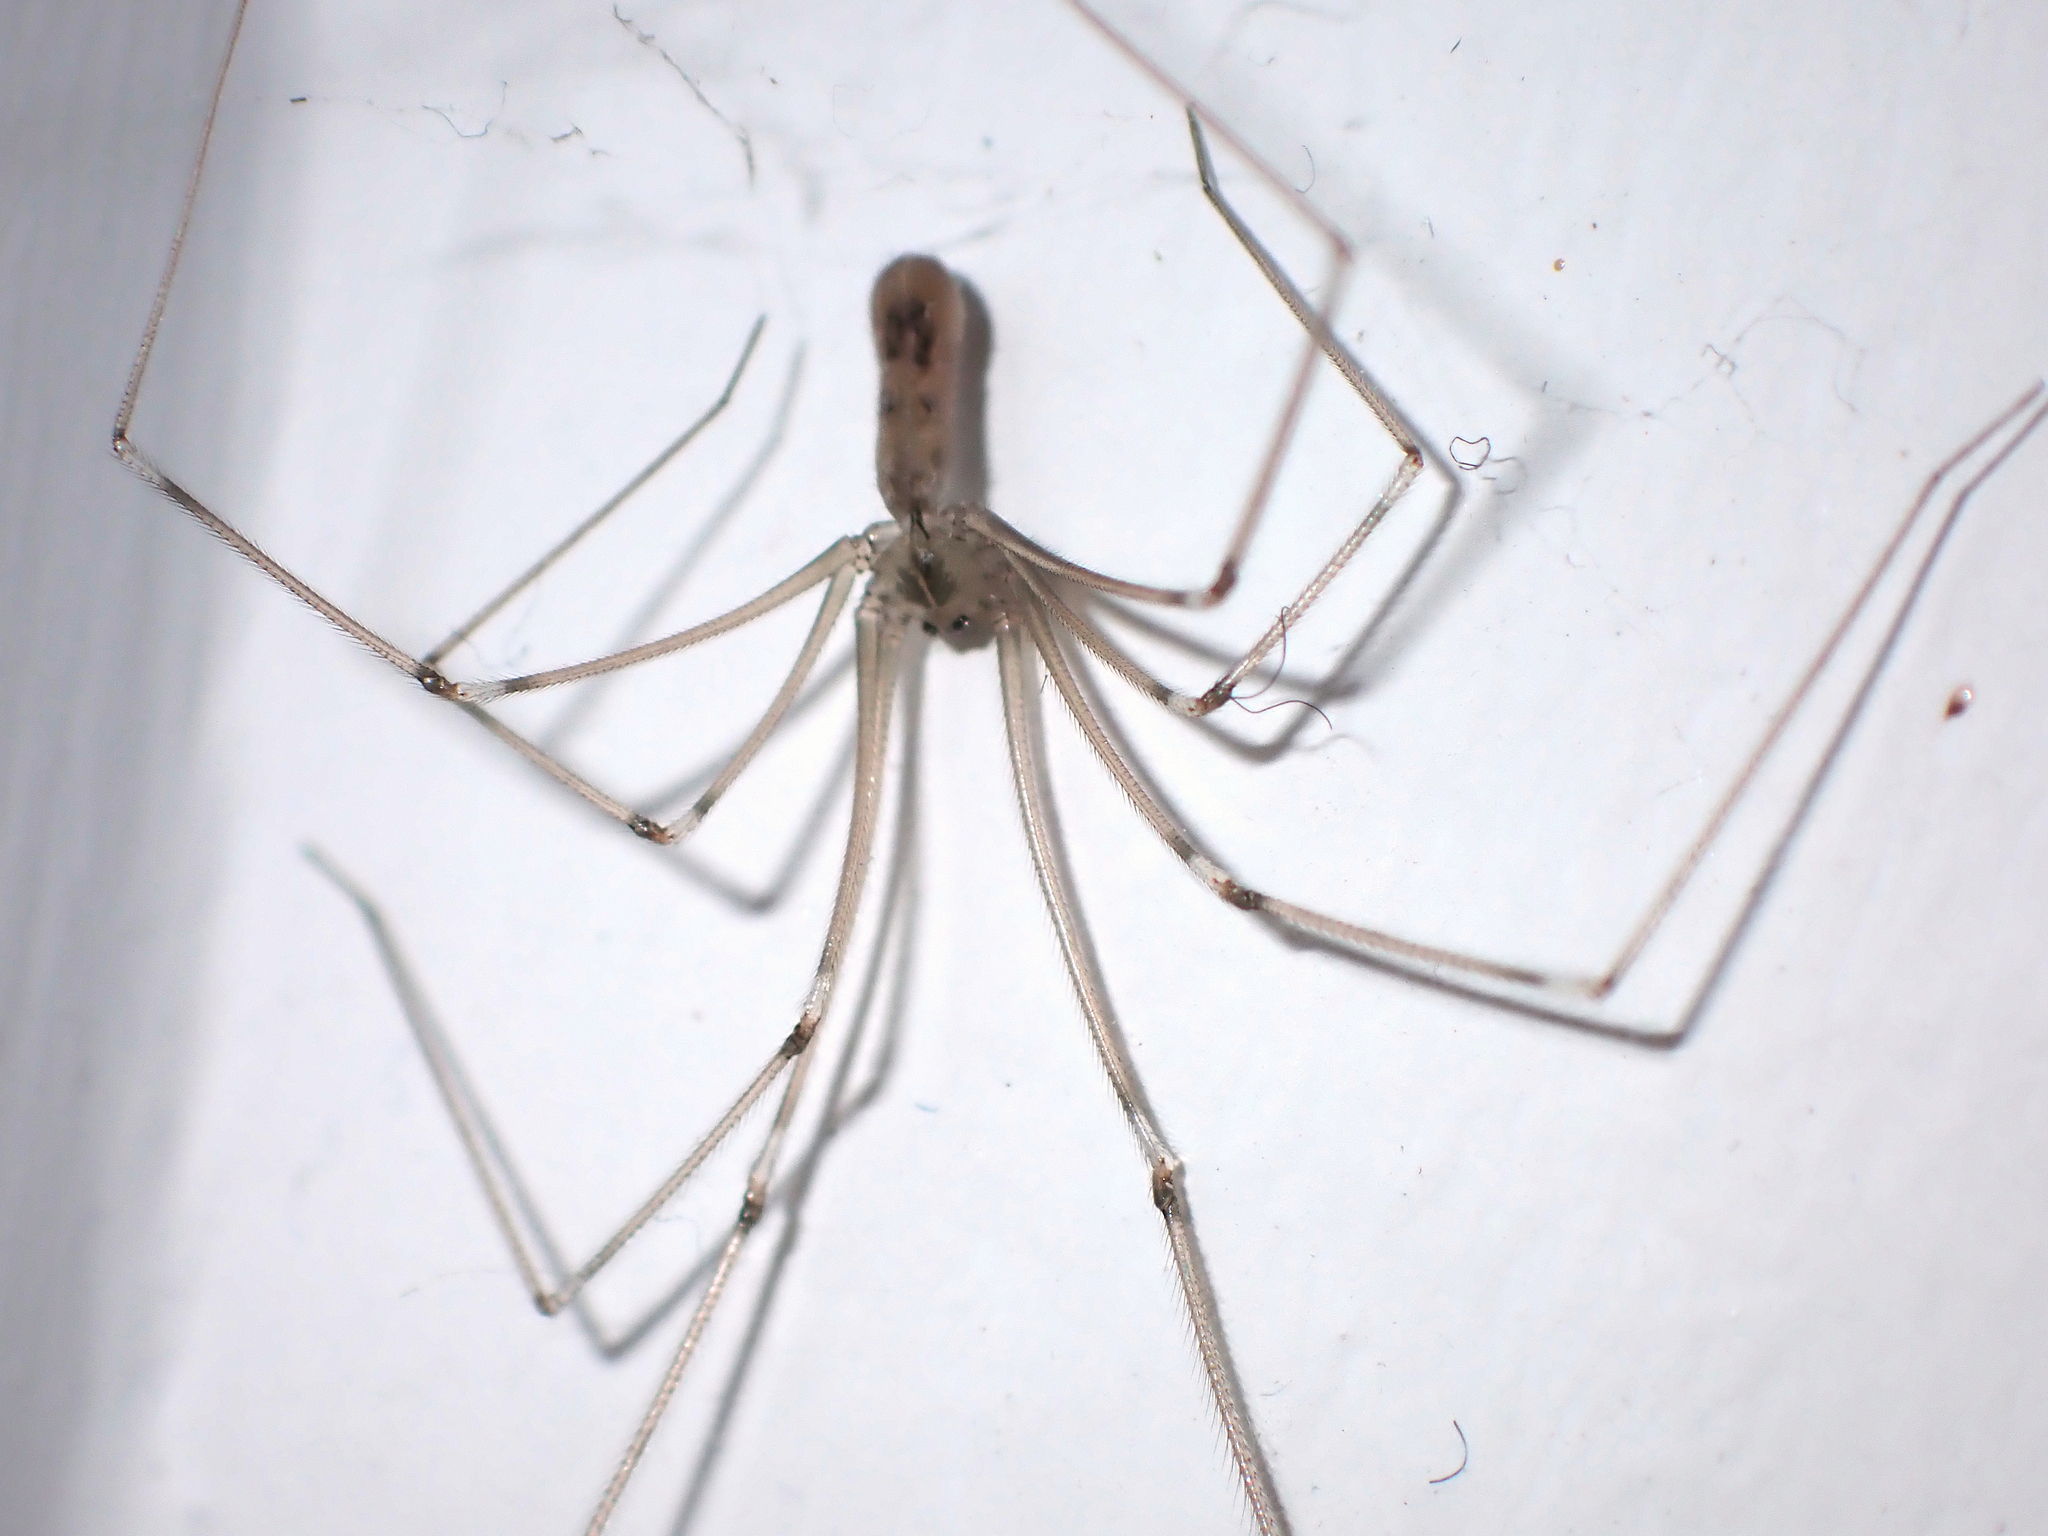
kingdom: Animalia
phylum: Arthropoda
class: Arachnida
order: Araneae
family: Pholcidae
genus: Pholcus
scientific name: Pholcus phalangioides
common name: Longbodied cellar spider
